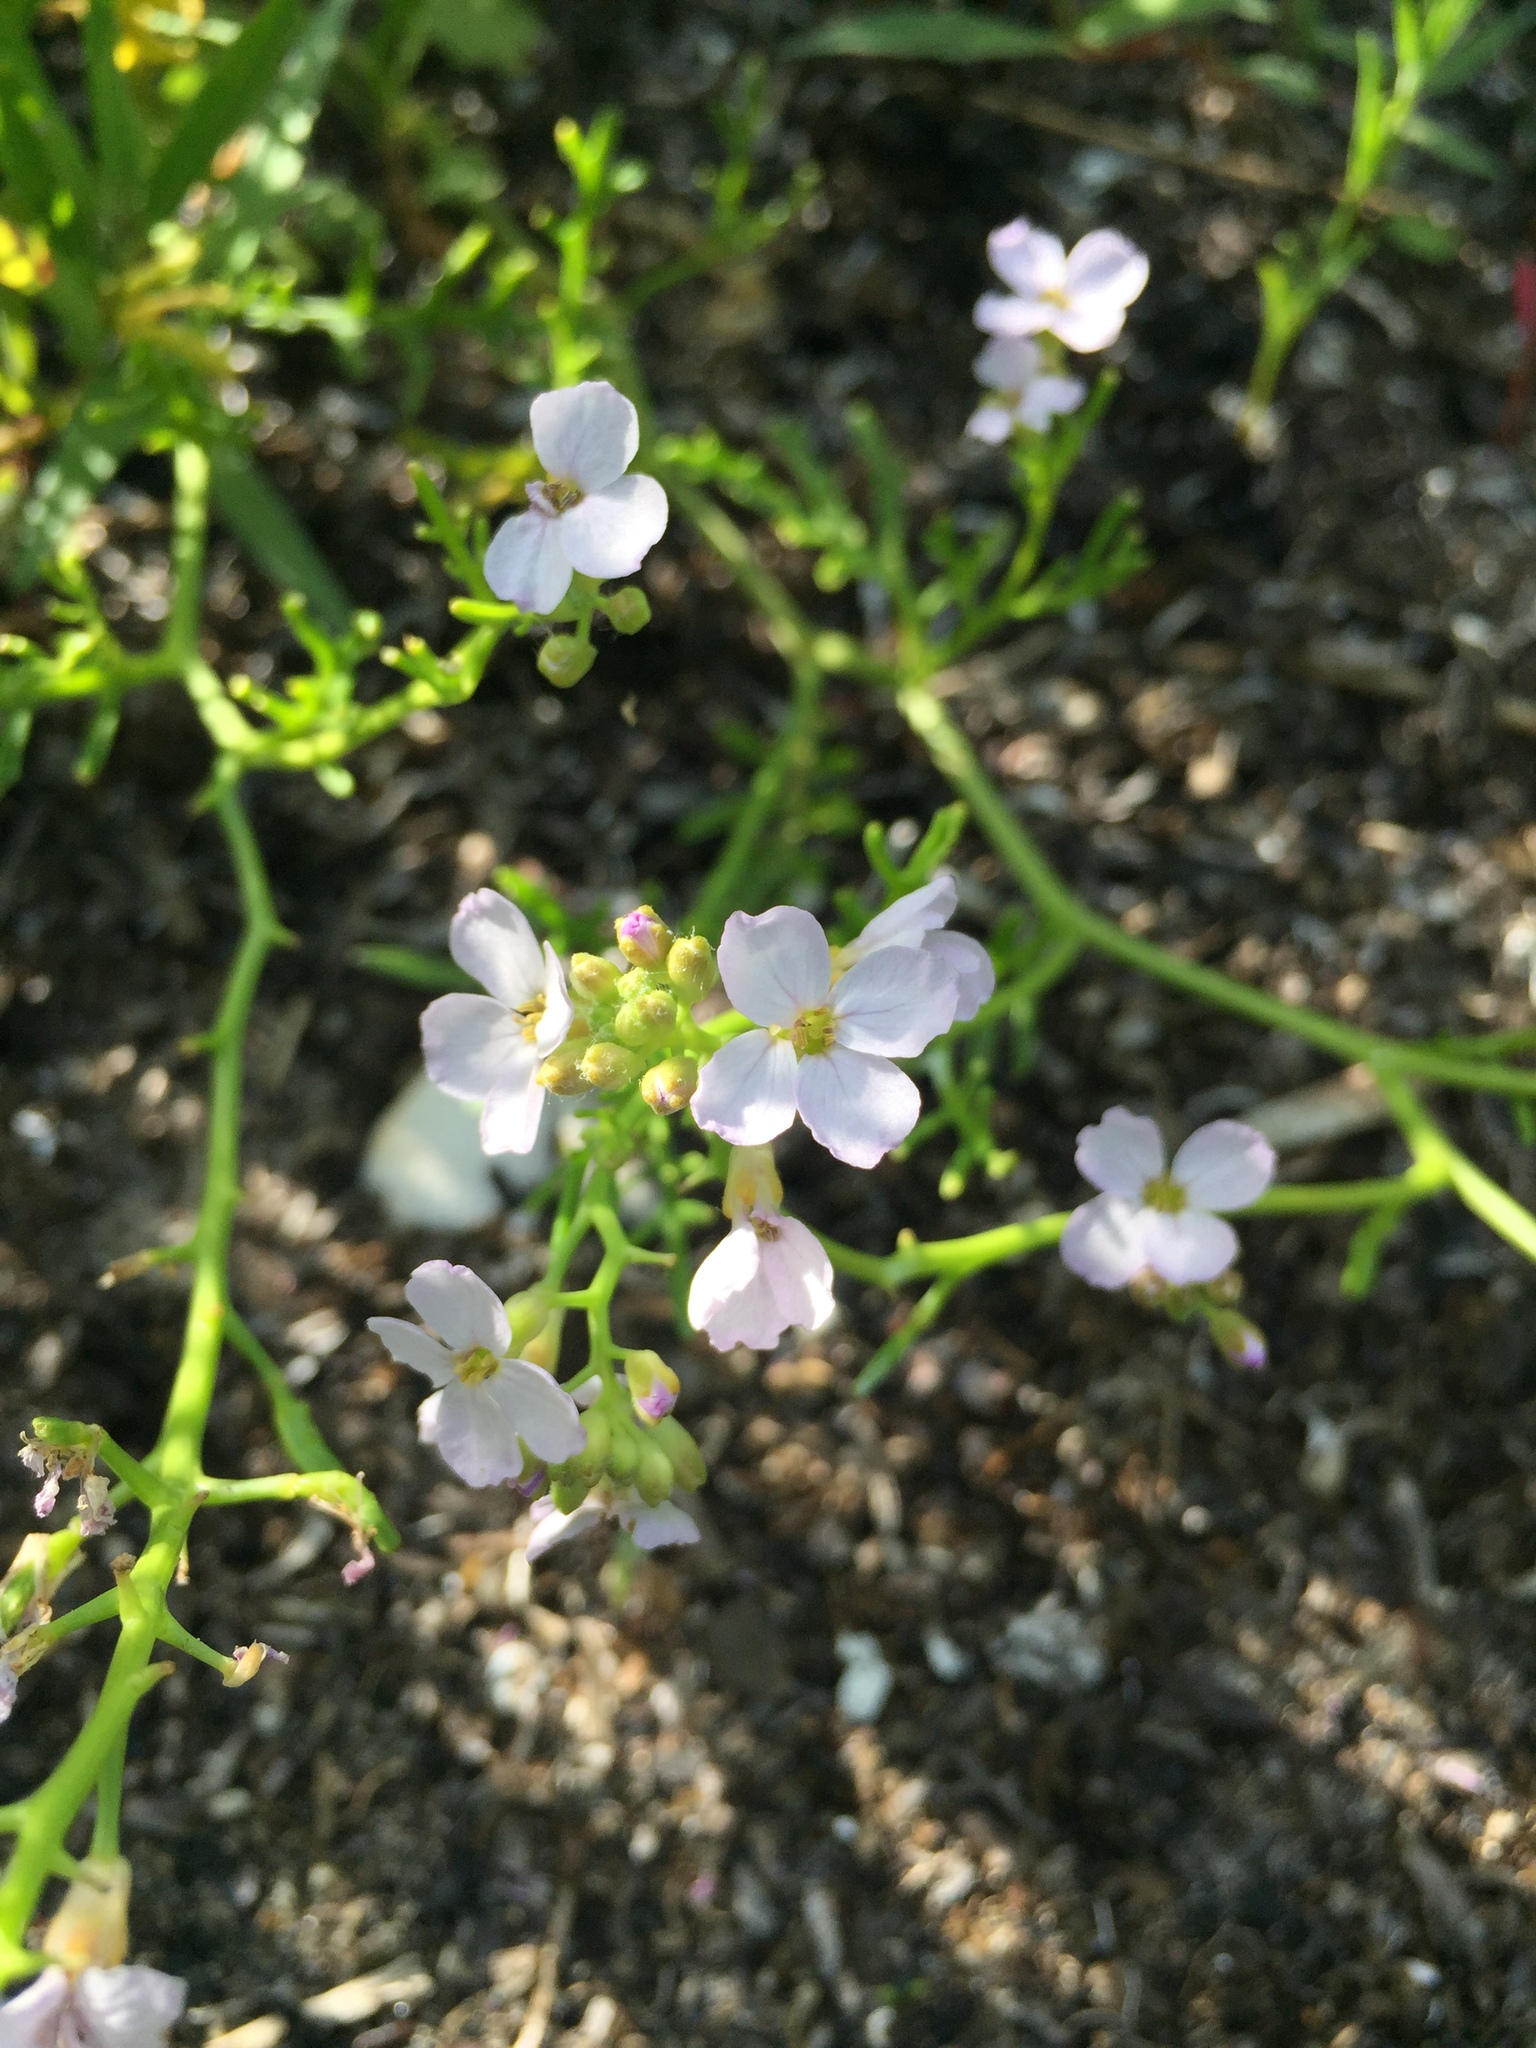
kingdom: Plantae
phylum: Tracheophyta
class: Magnoliopsida
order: Brassicales
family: Brassicaceae
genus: Cakile
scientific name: Cakile maritima
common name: Sea rocket
